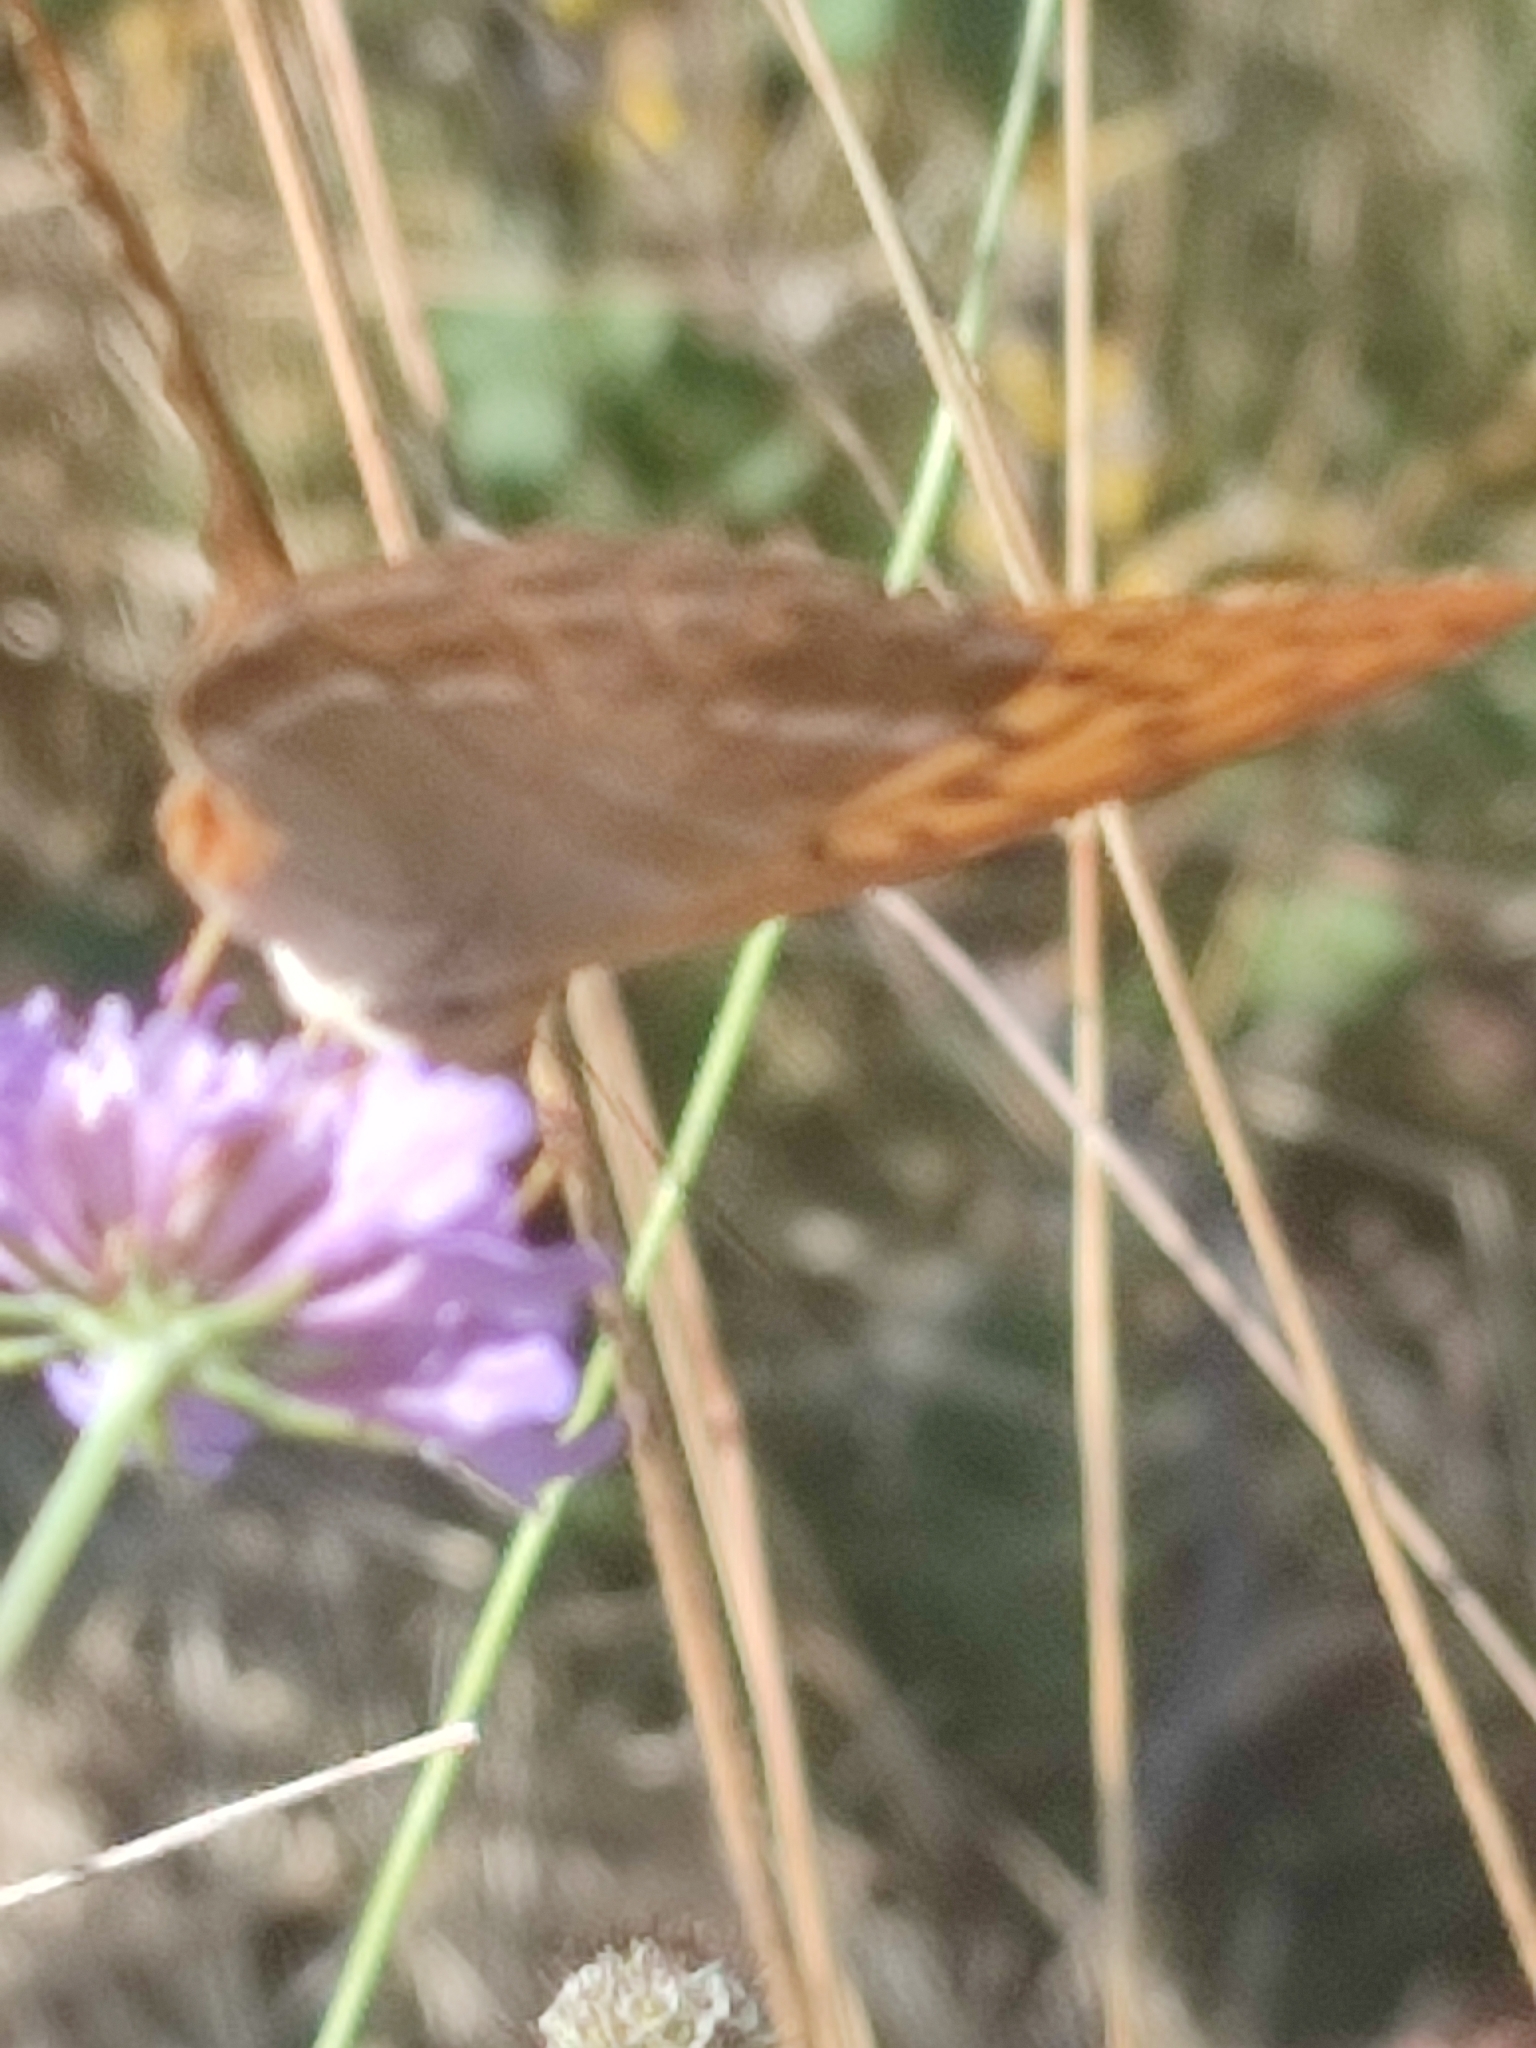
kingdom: Animalia
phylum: Arthropoda
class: Insecta
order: Lepidoptera
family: Nymphalidae
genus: Argynnis
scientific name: Argynnis paphia
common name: Silver-washed fritillary
